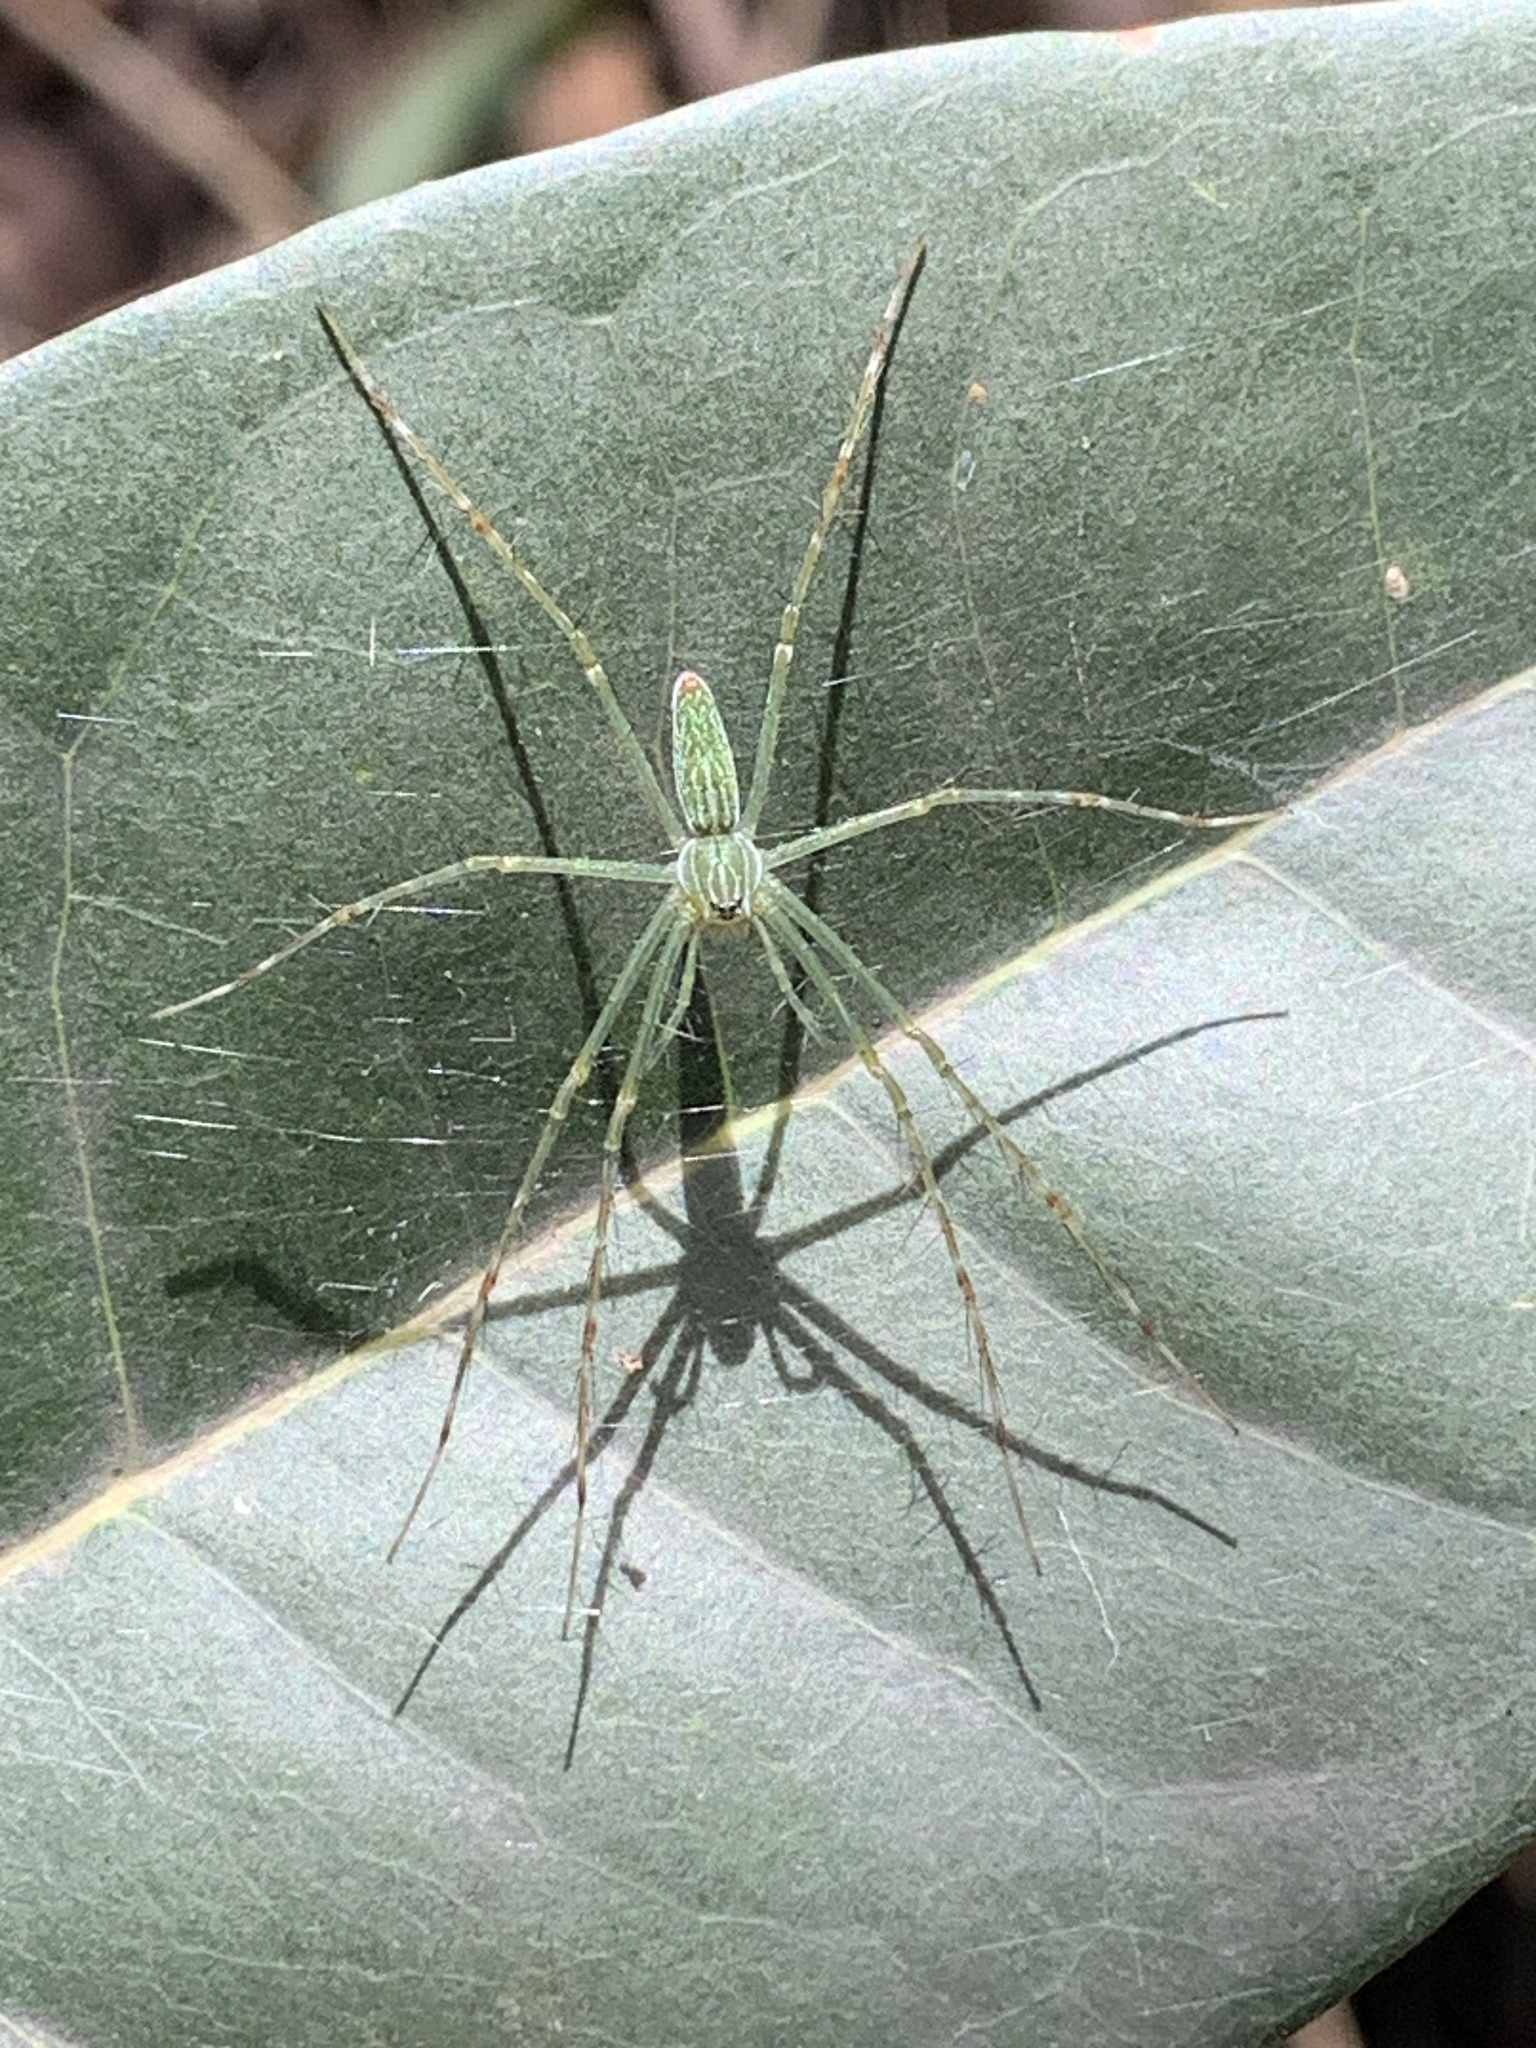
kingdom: Animalia
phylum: Arthropoda
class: Arachnida
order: Araneae
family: Pisauridae
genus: Hygropoda
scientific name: Hygropoda lineata
